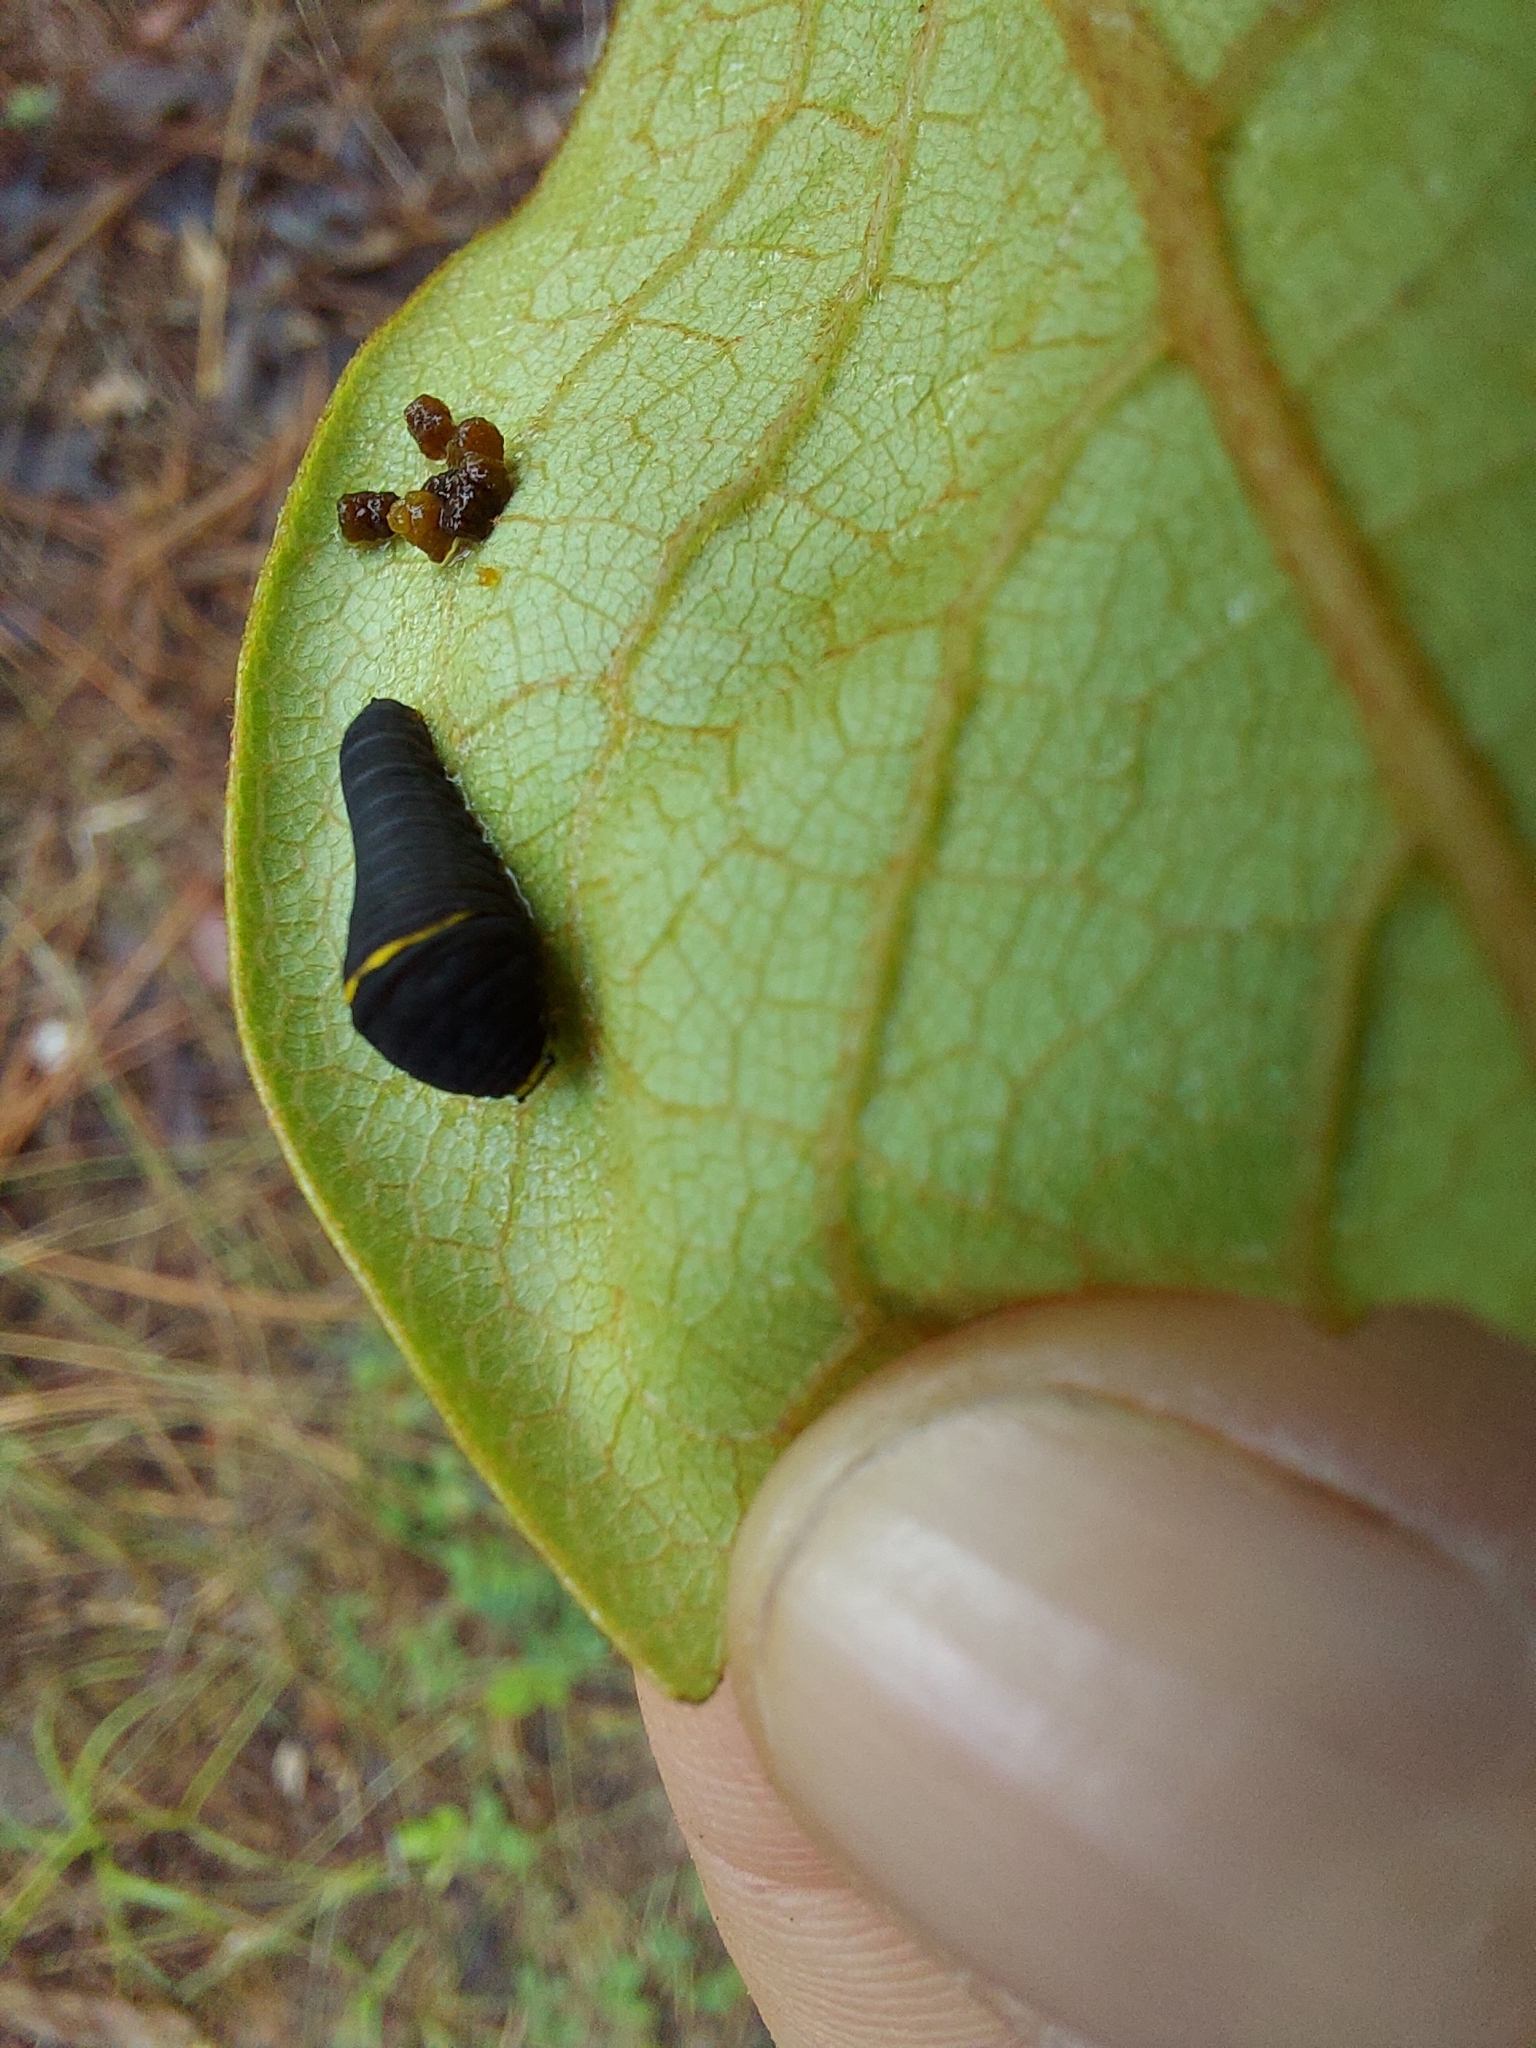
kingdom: Animalia
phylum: Arthropoda
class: Insecta
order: Lepidoptera
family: Papilionidae
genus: Protographium
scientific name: Protographium marcellus
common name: Zebra swallowtail
